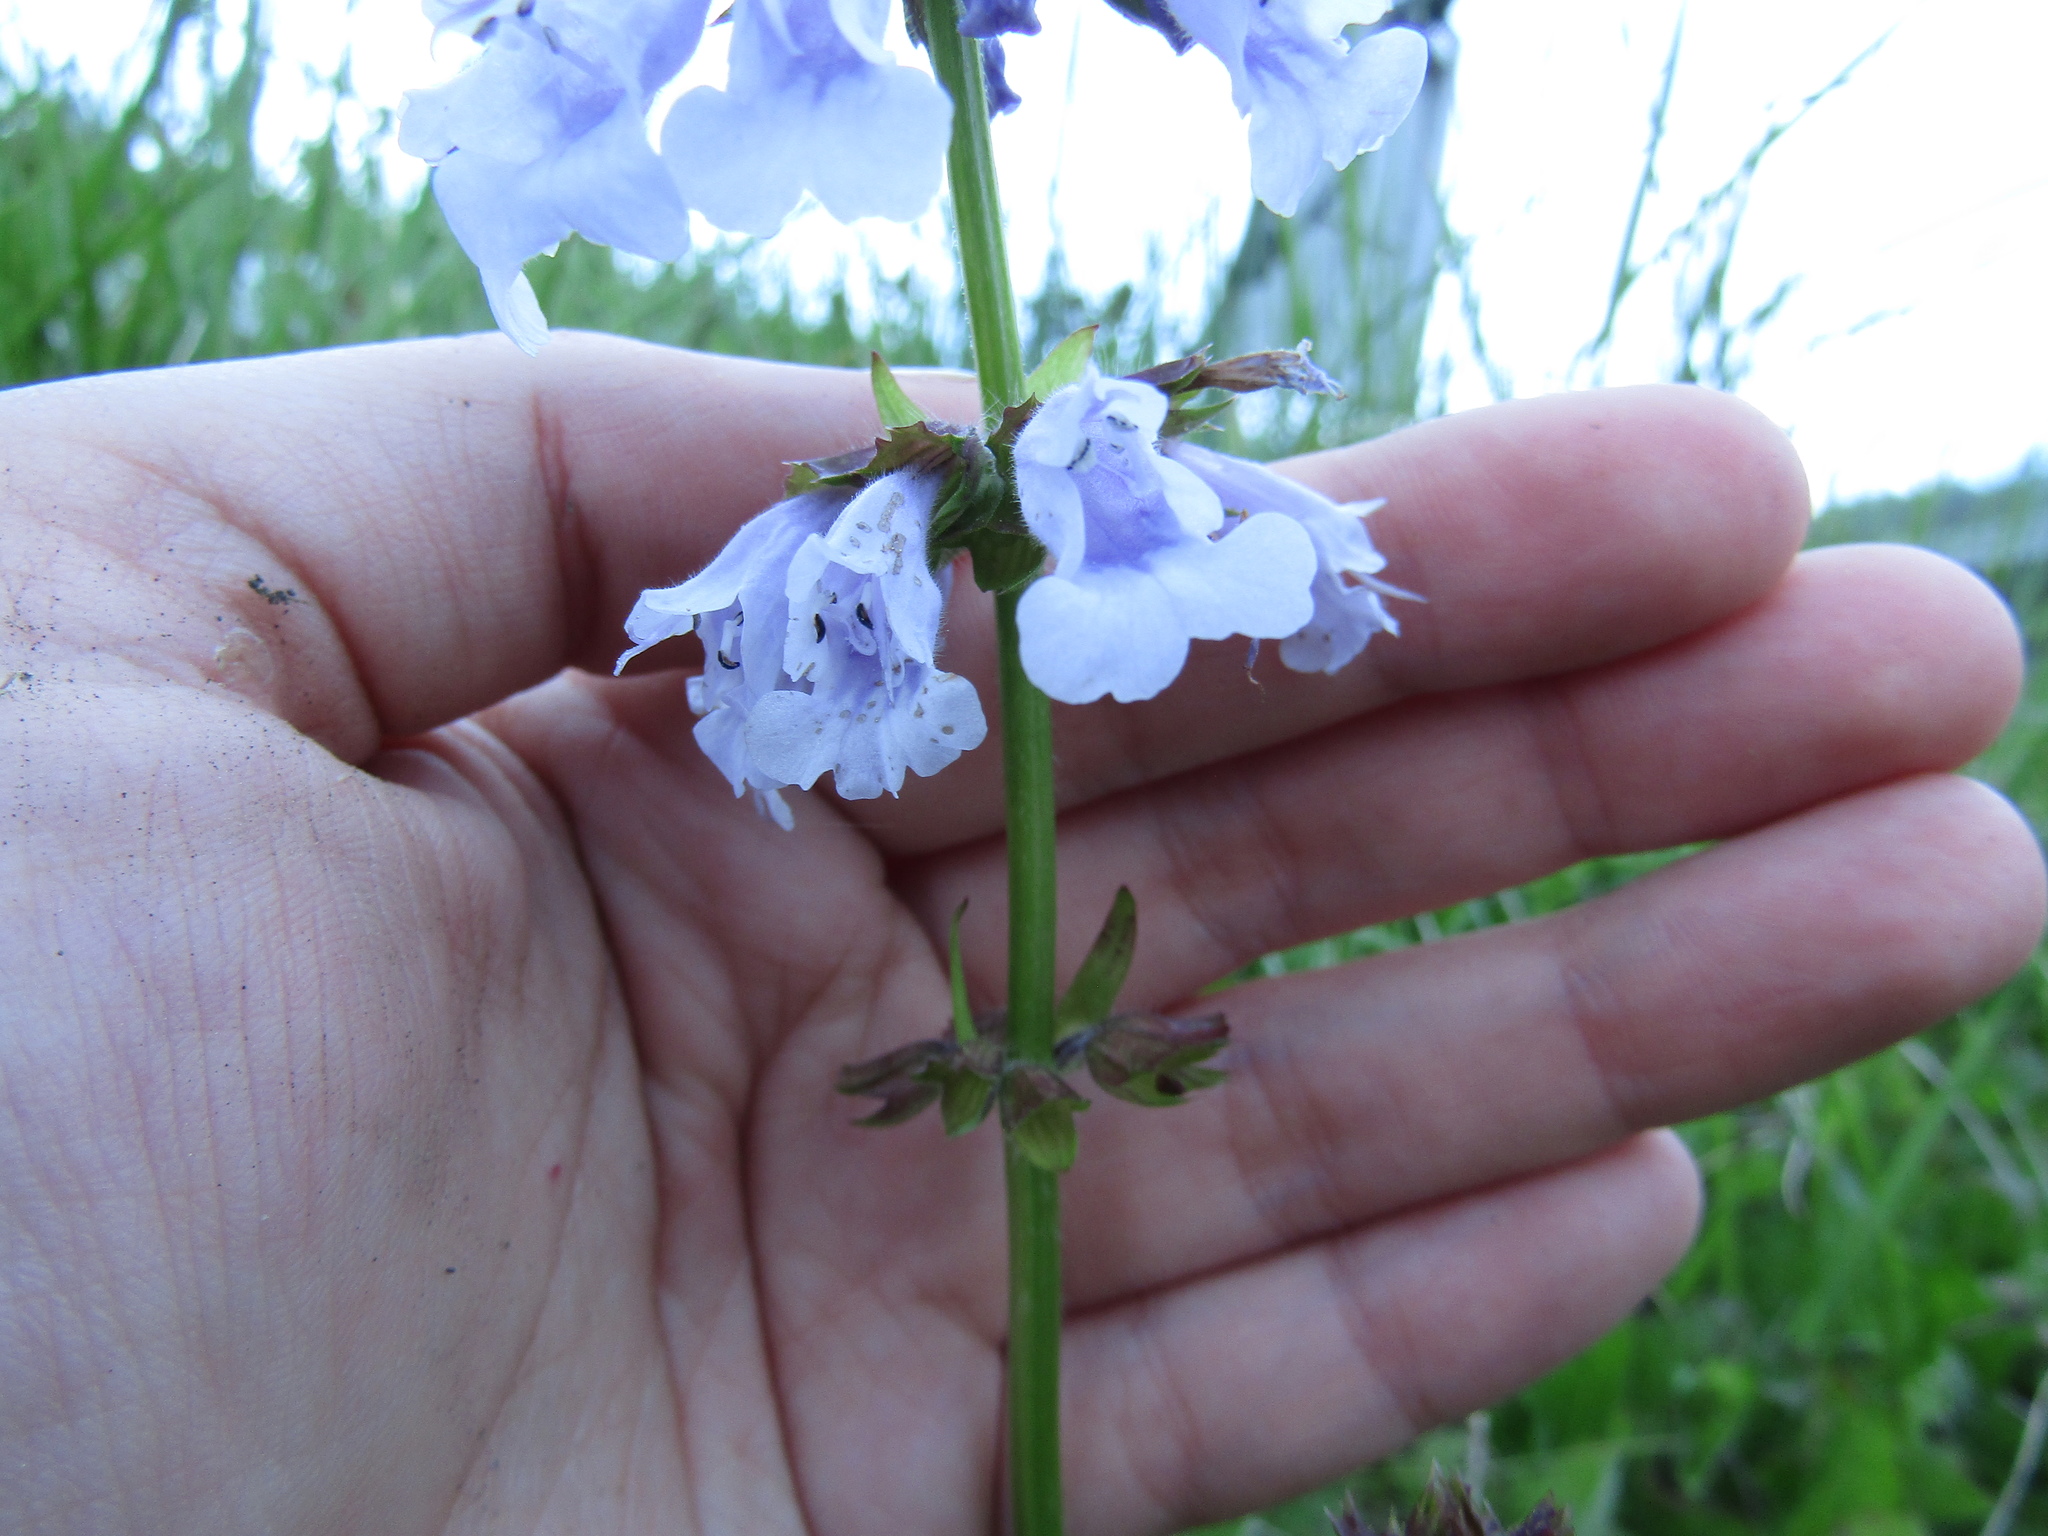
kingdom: Plantae
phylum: Tracheophyta
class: Magnoliopsida
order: Lamiales
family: Lamiaceae
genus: Salvia
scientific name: Salvia lyrata
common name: Cancerweed
